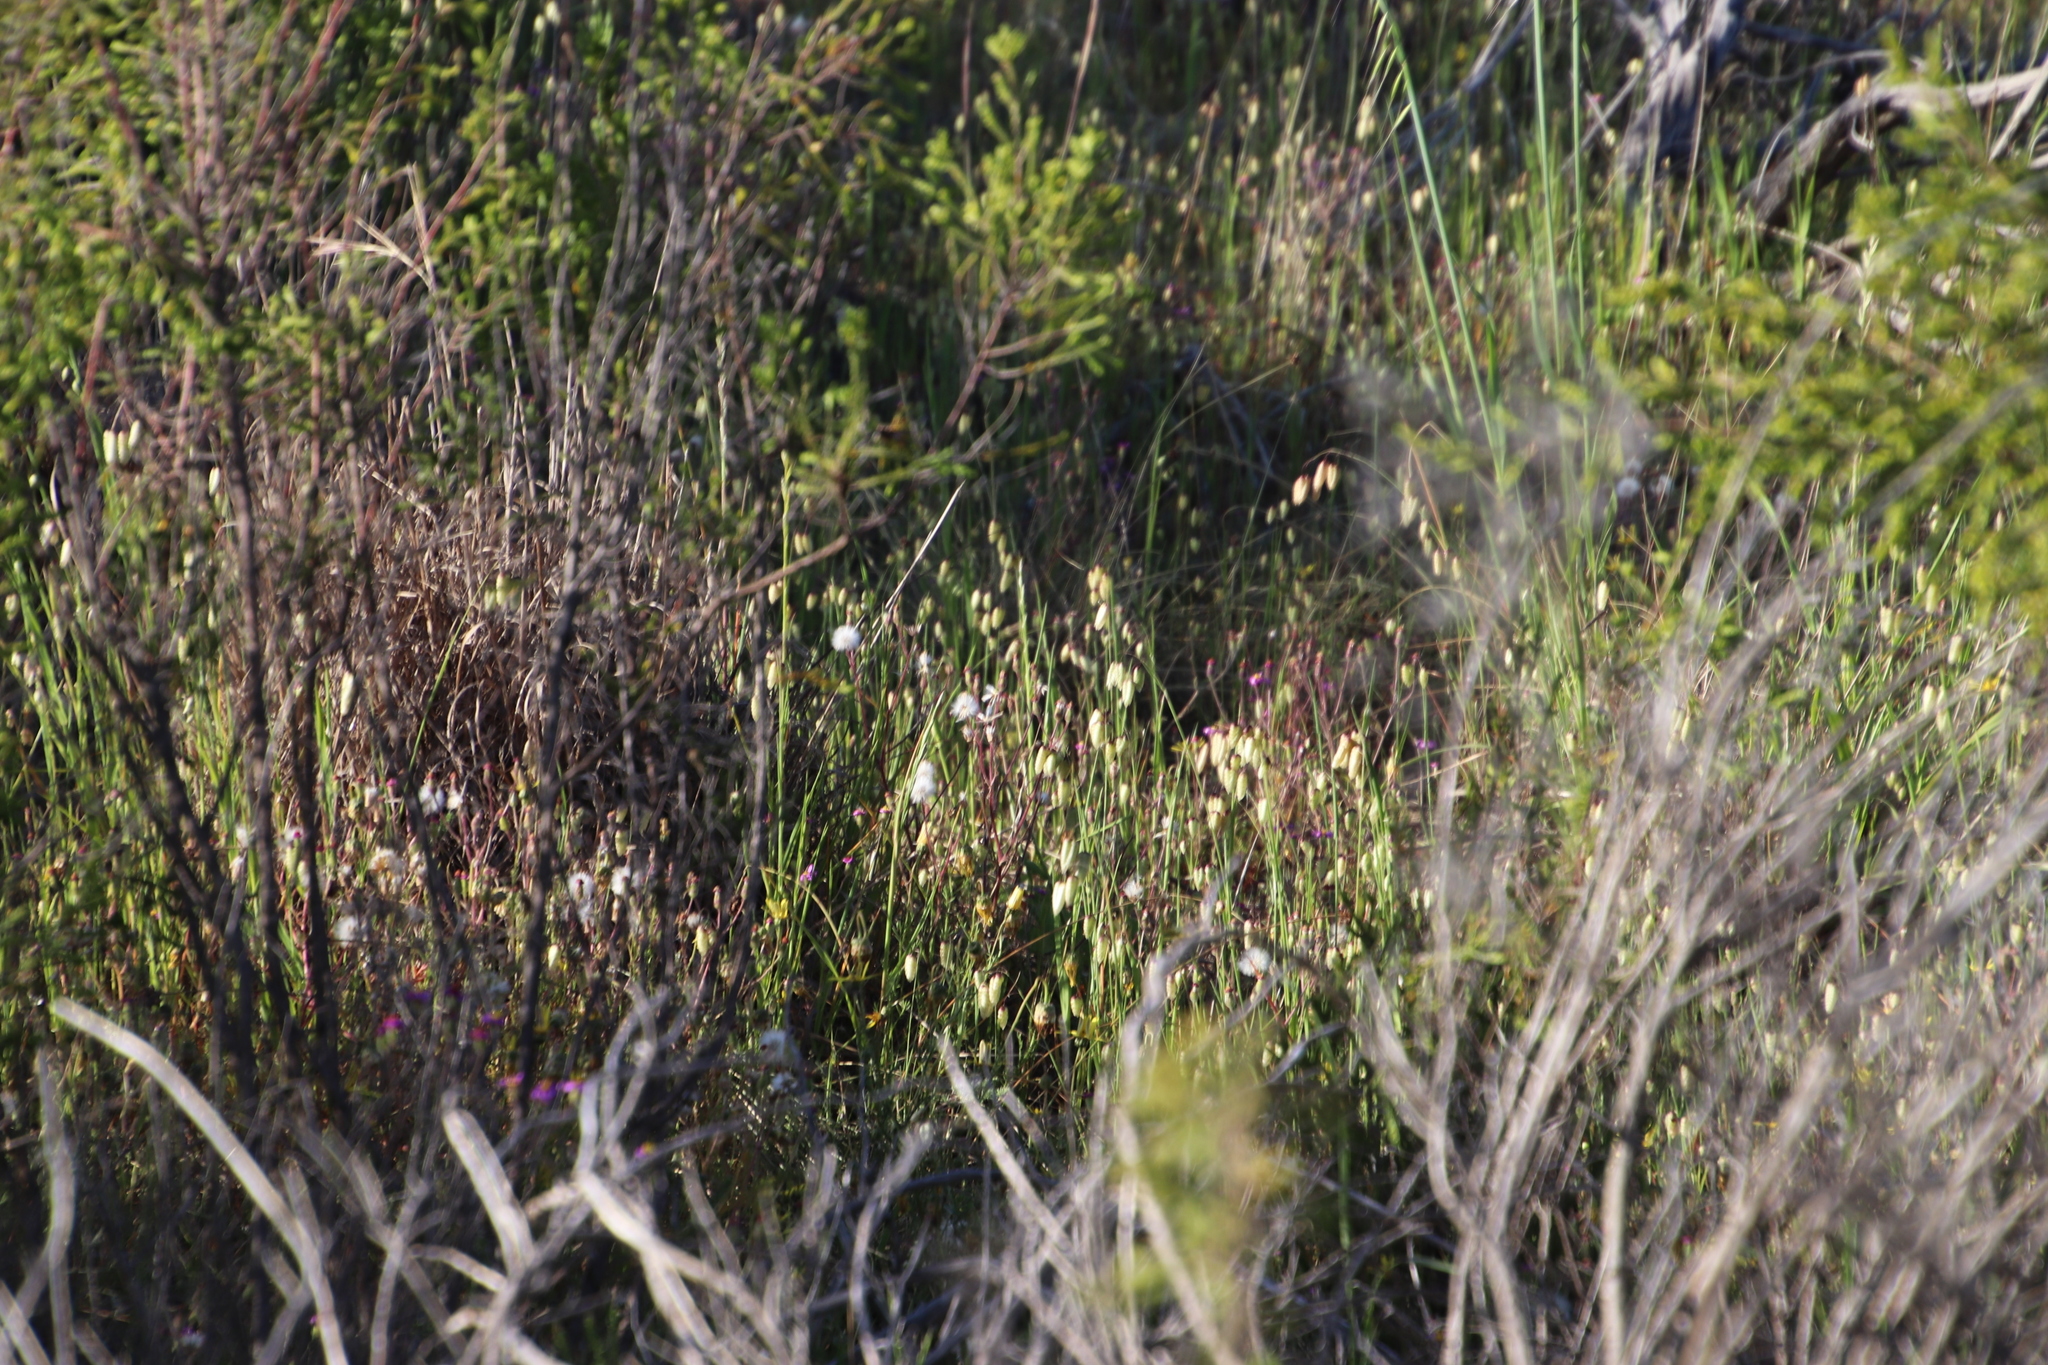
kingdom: Plantae
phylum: Tracheophyta
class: Liliopsida
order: Poales
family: Poaceae
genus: Briza
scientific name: Briza maxima
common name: Big quakinggrass
